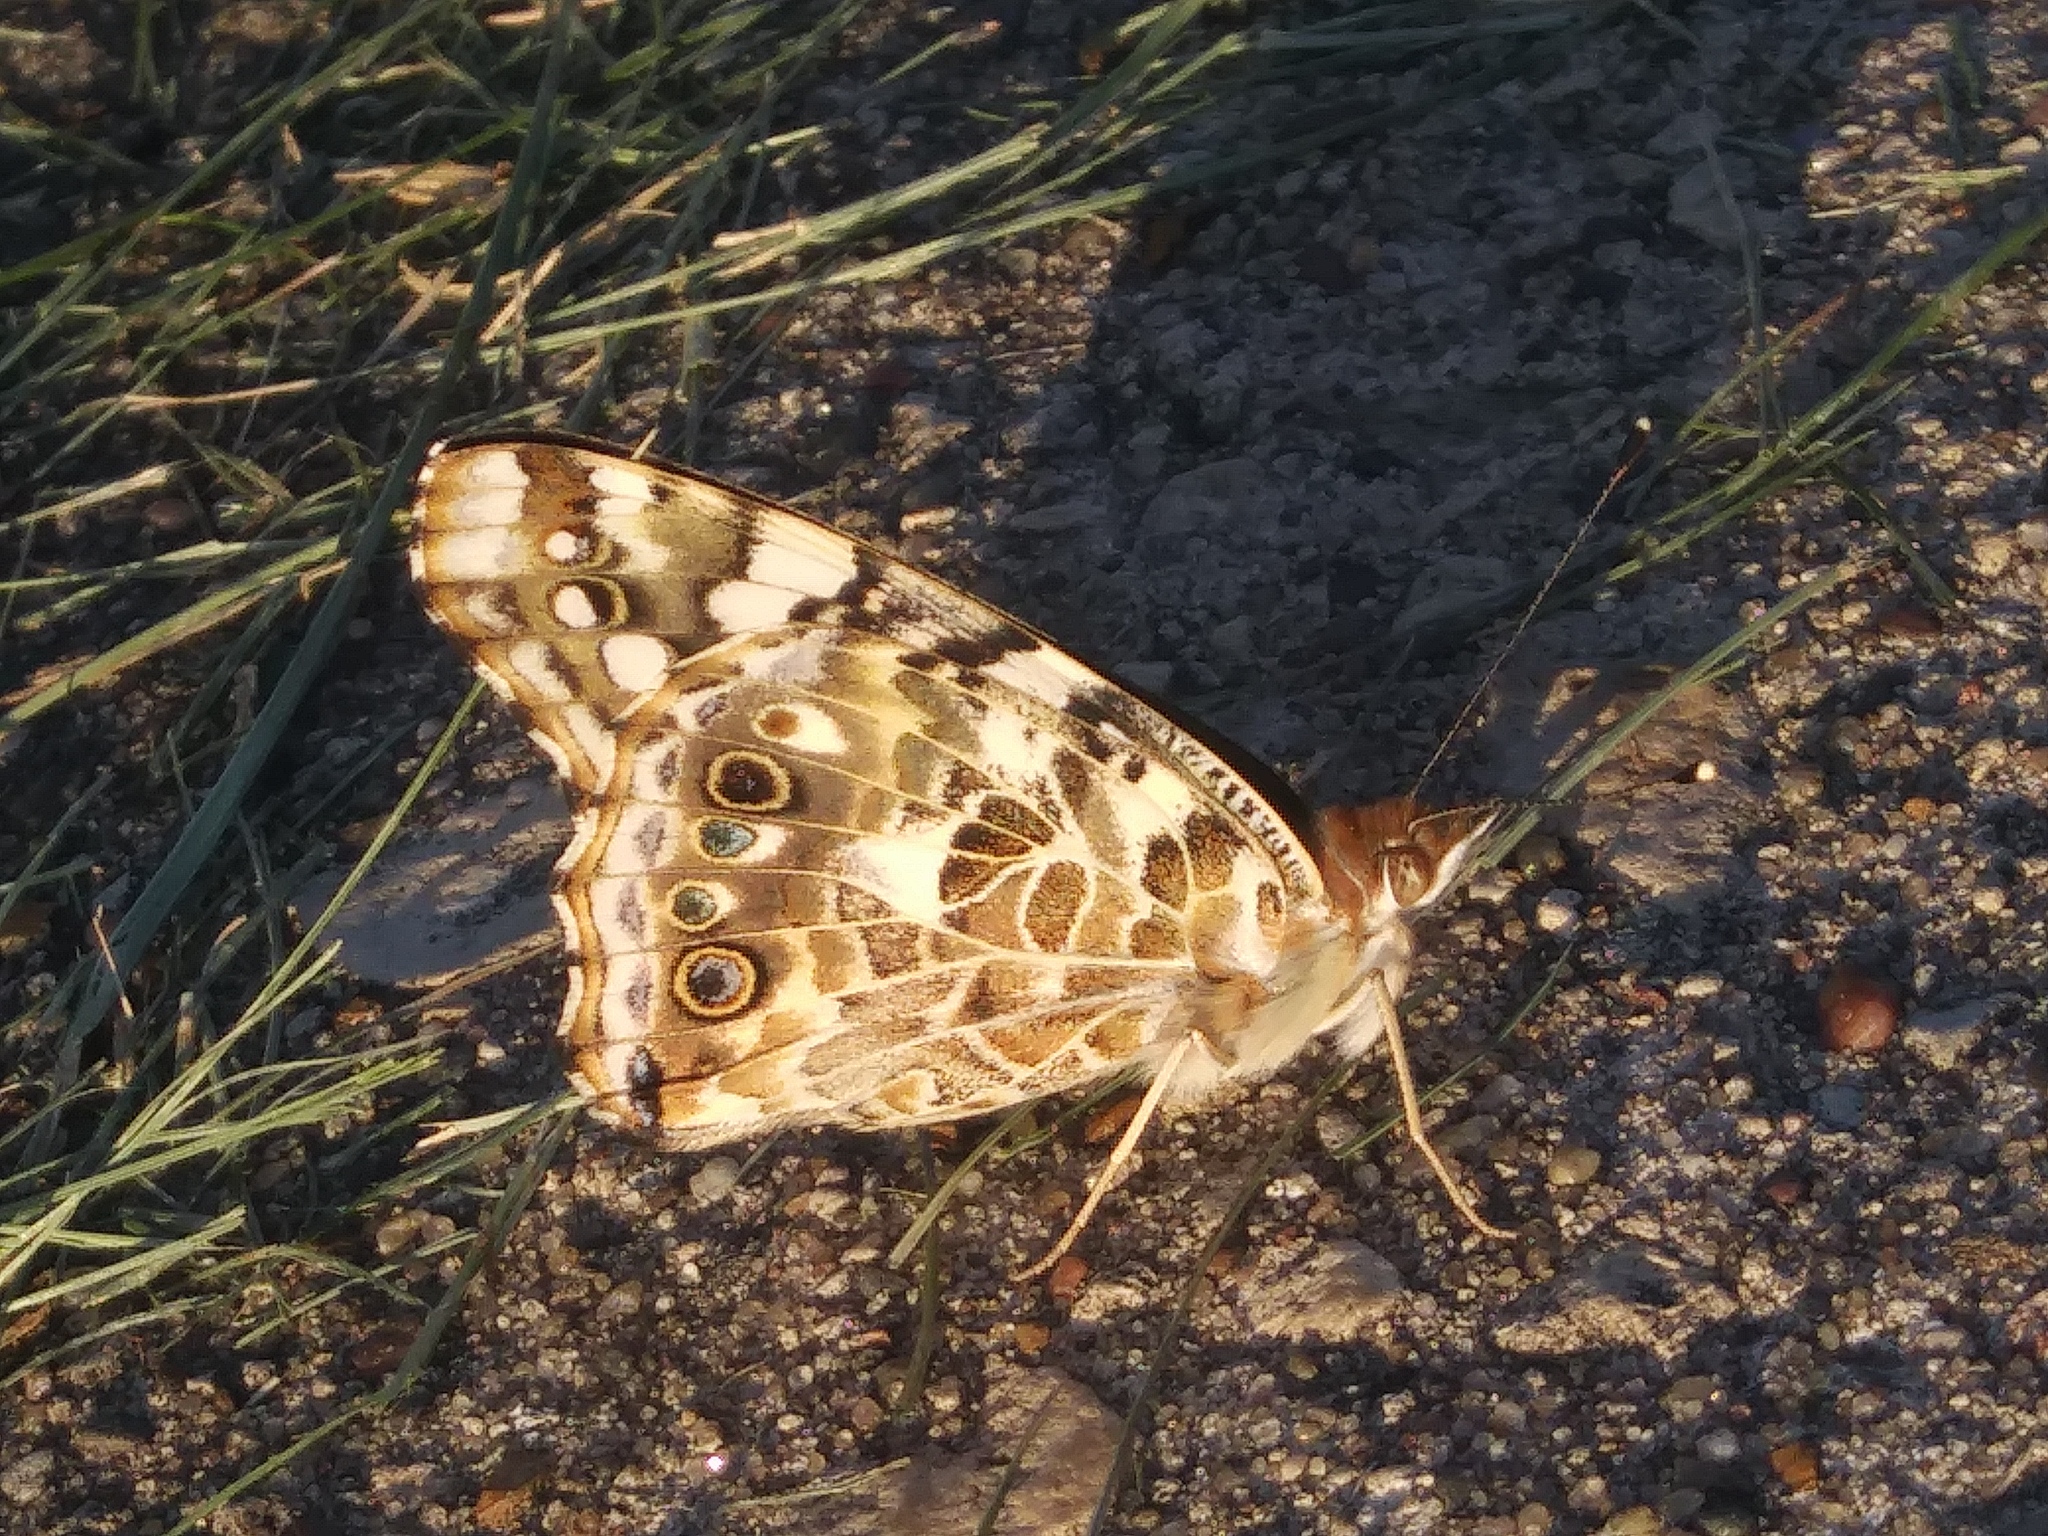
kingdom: Animalia
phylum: Arthropoda
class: Insecta
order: Lepidoptera
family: Nymphalidae
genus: Vanessa
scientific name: Vanessa cardui
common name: Painted lady
